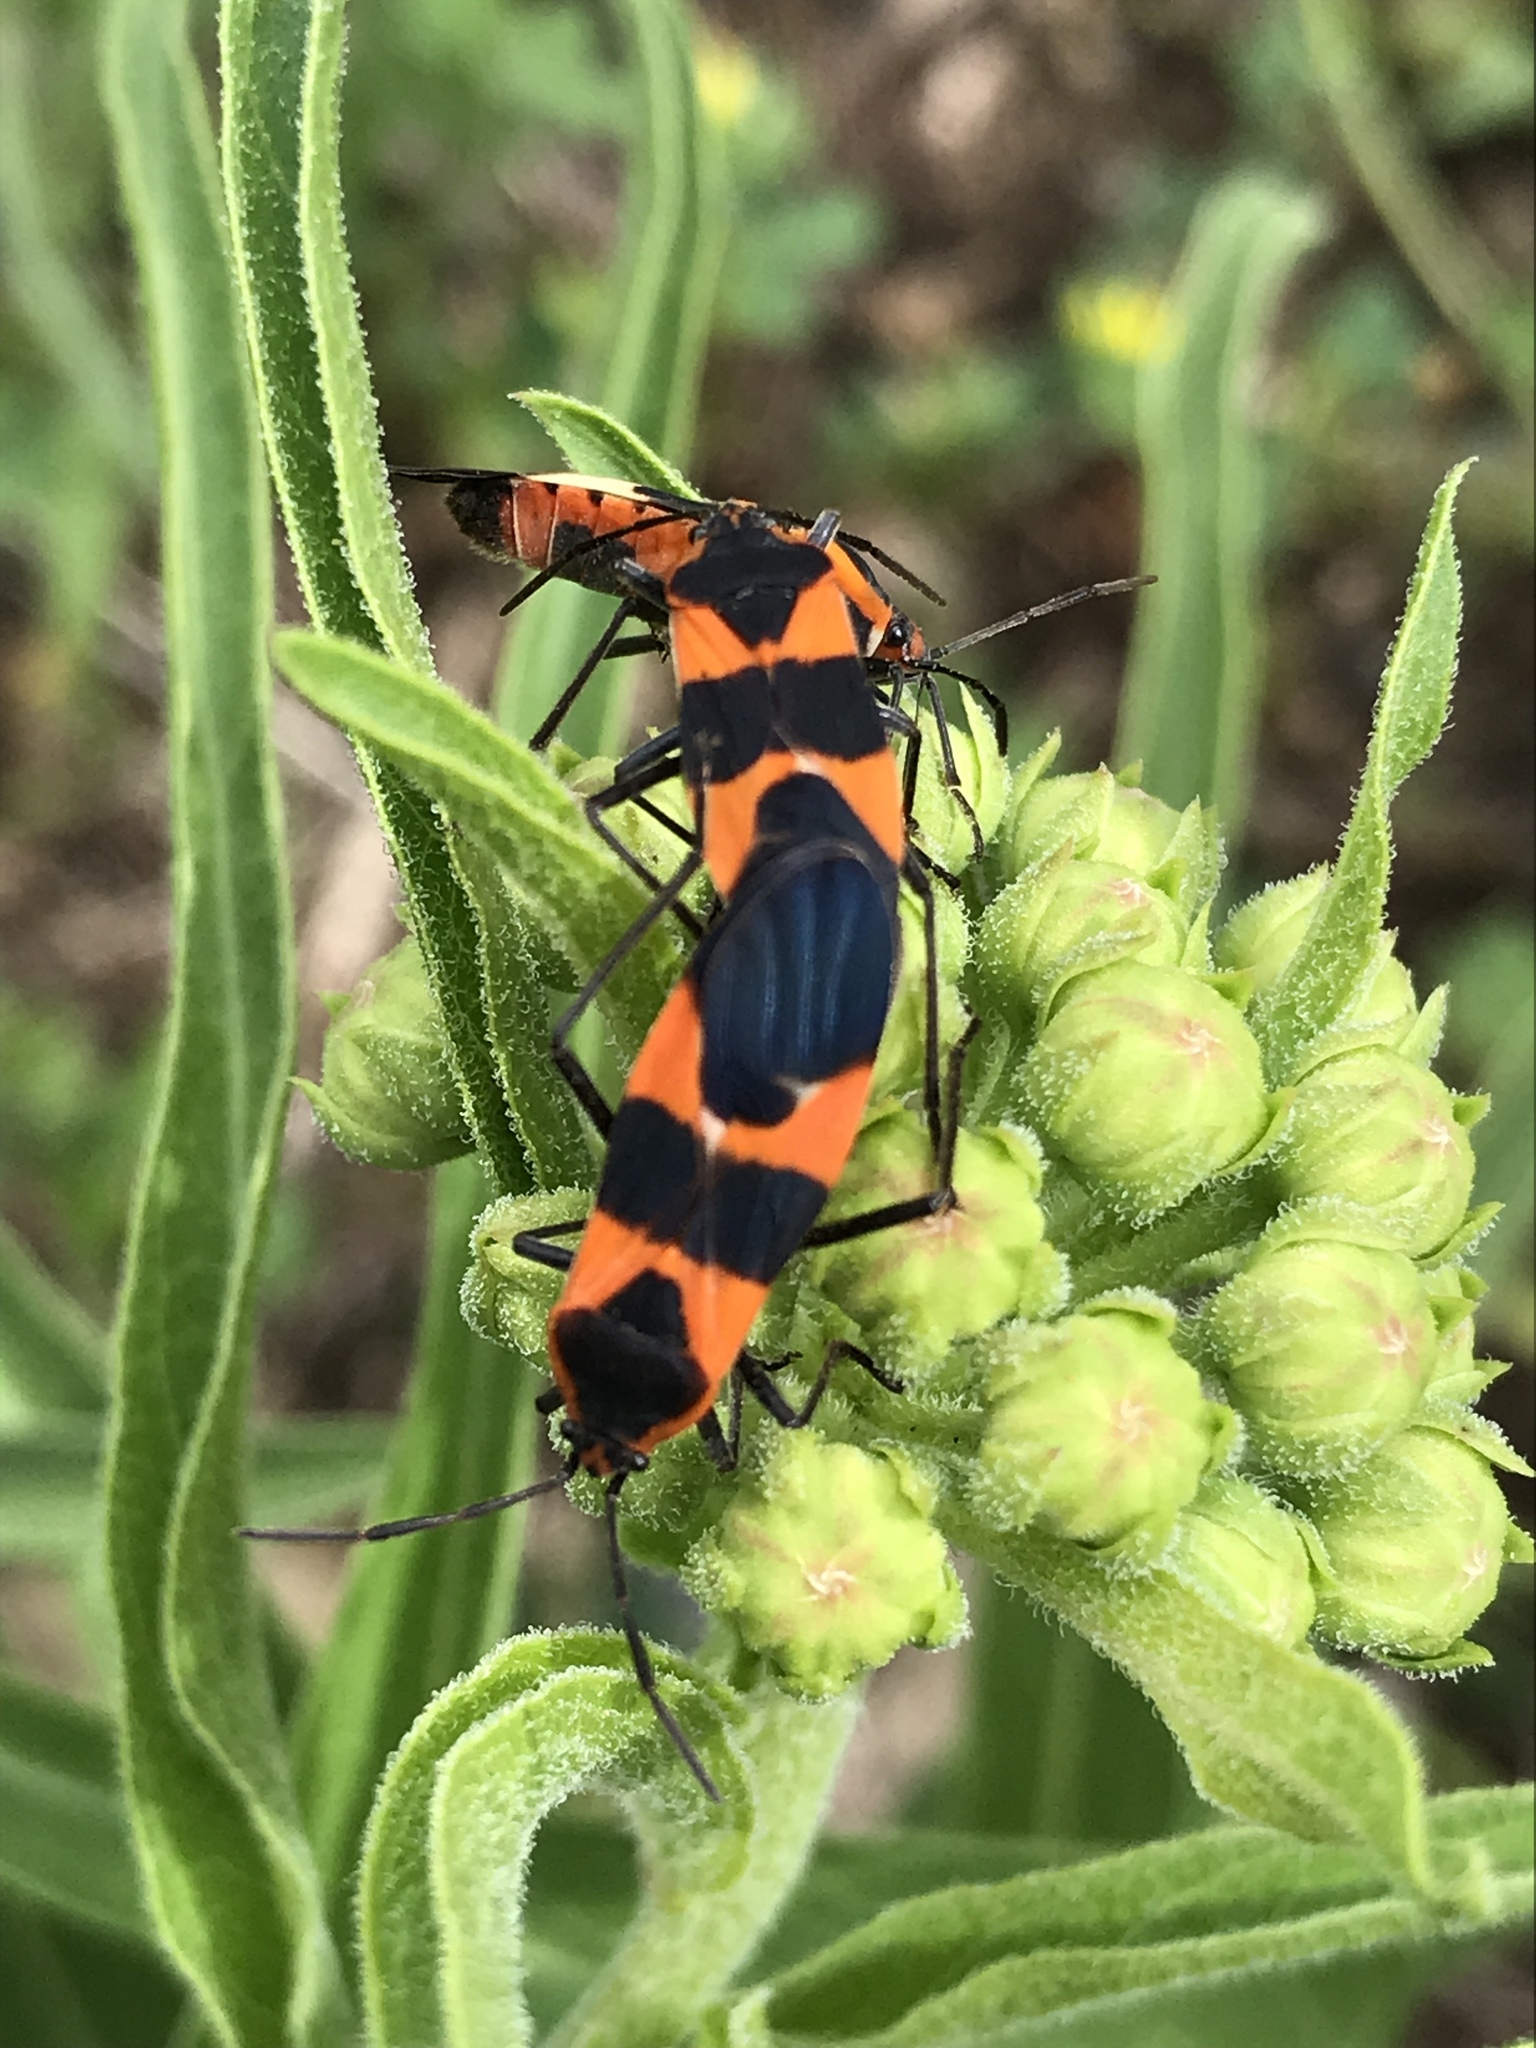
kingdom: Animalia
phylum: Arthropoda
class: Insecta
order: Hemiptera
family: Lygaeidae
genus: Oncopeltus
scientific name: Oncopeltus fasciatus
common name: Large milkweed bug
